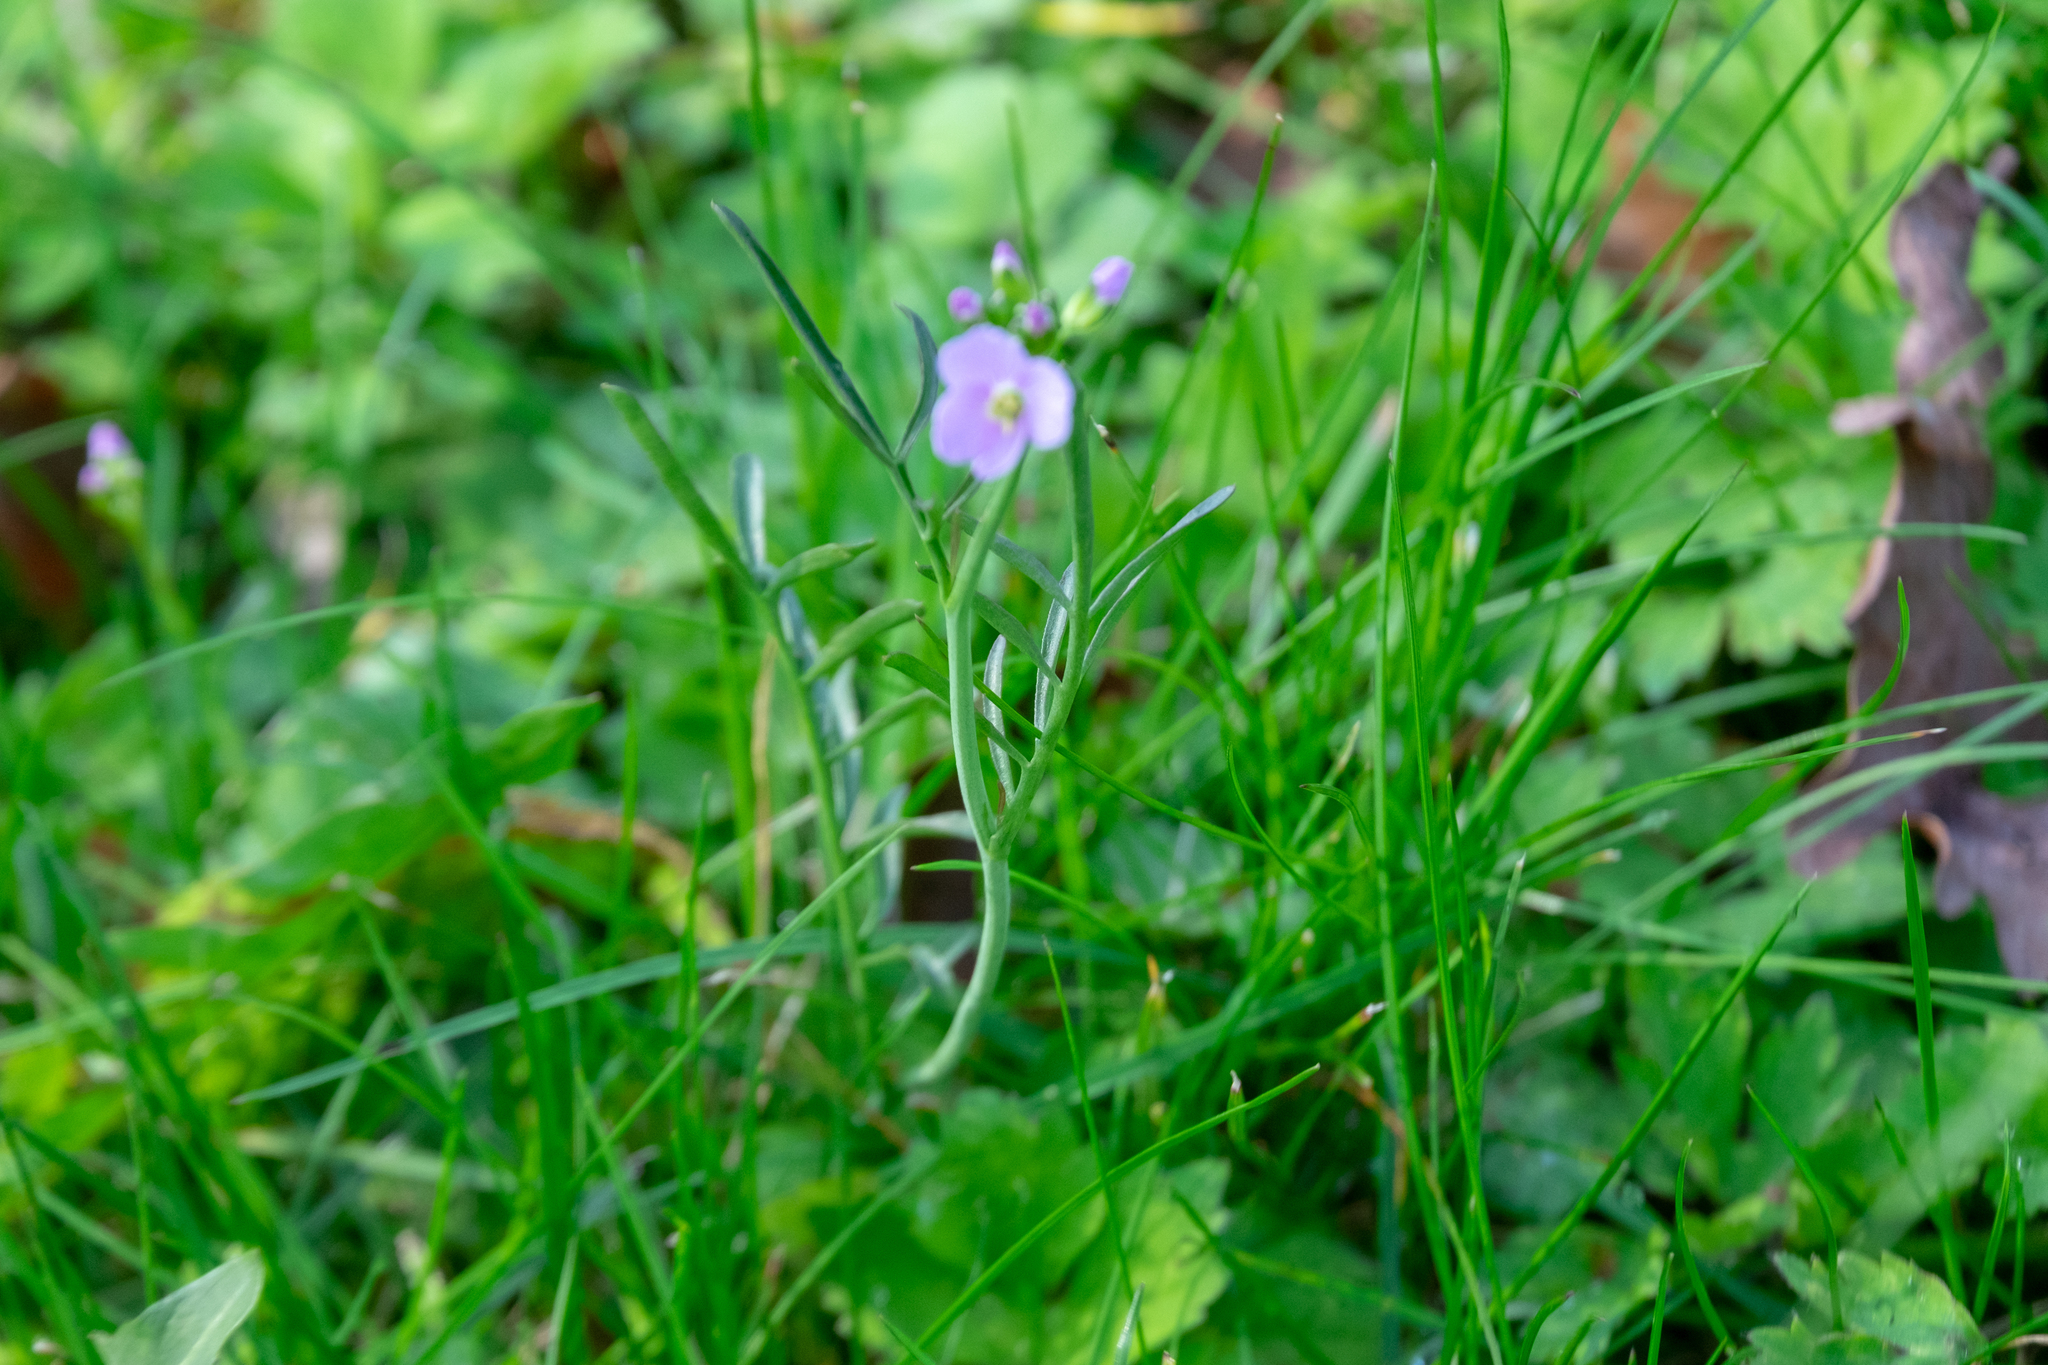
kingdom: Plantae
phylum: Tracheophyta
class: Magnoliopsida
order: Brassicales
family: Brassicaceae
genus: Cardamine
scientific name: Cardamine pratensis
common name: Cuckoo flower
